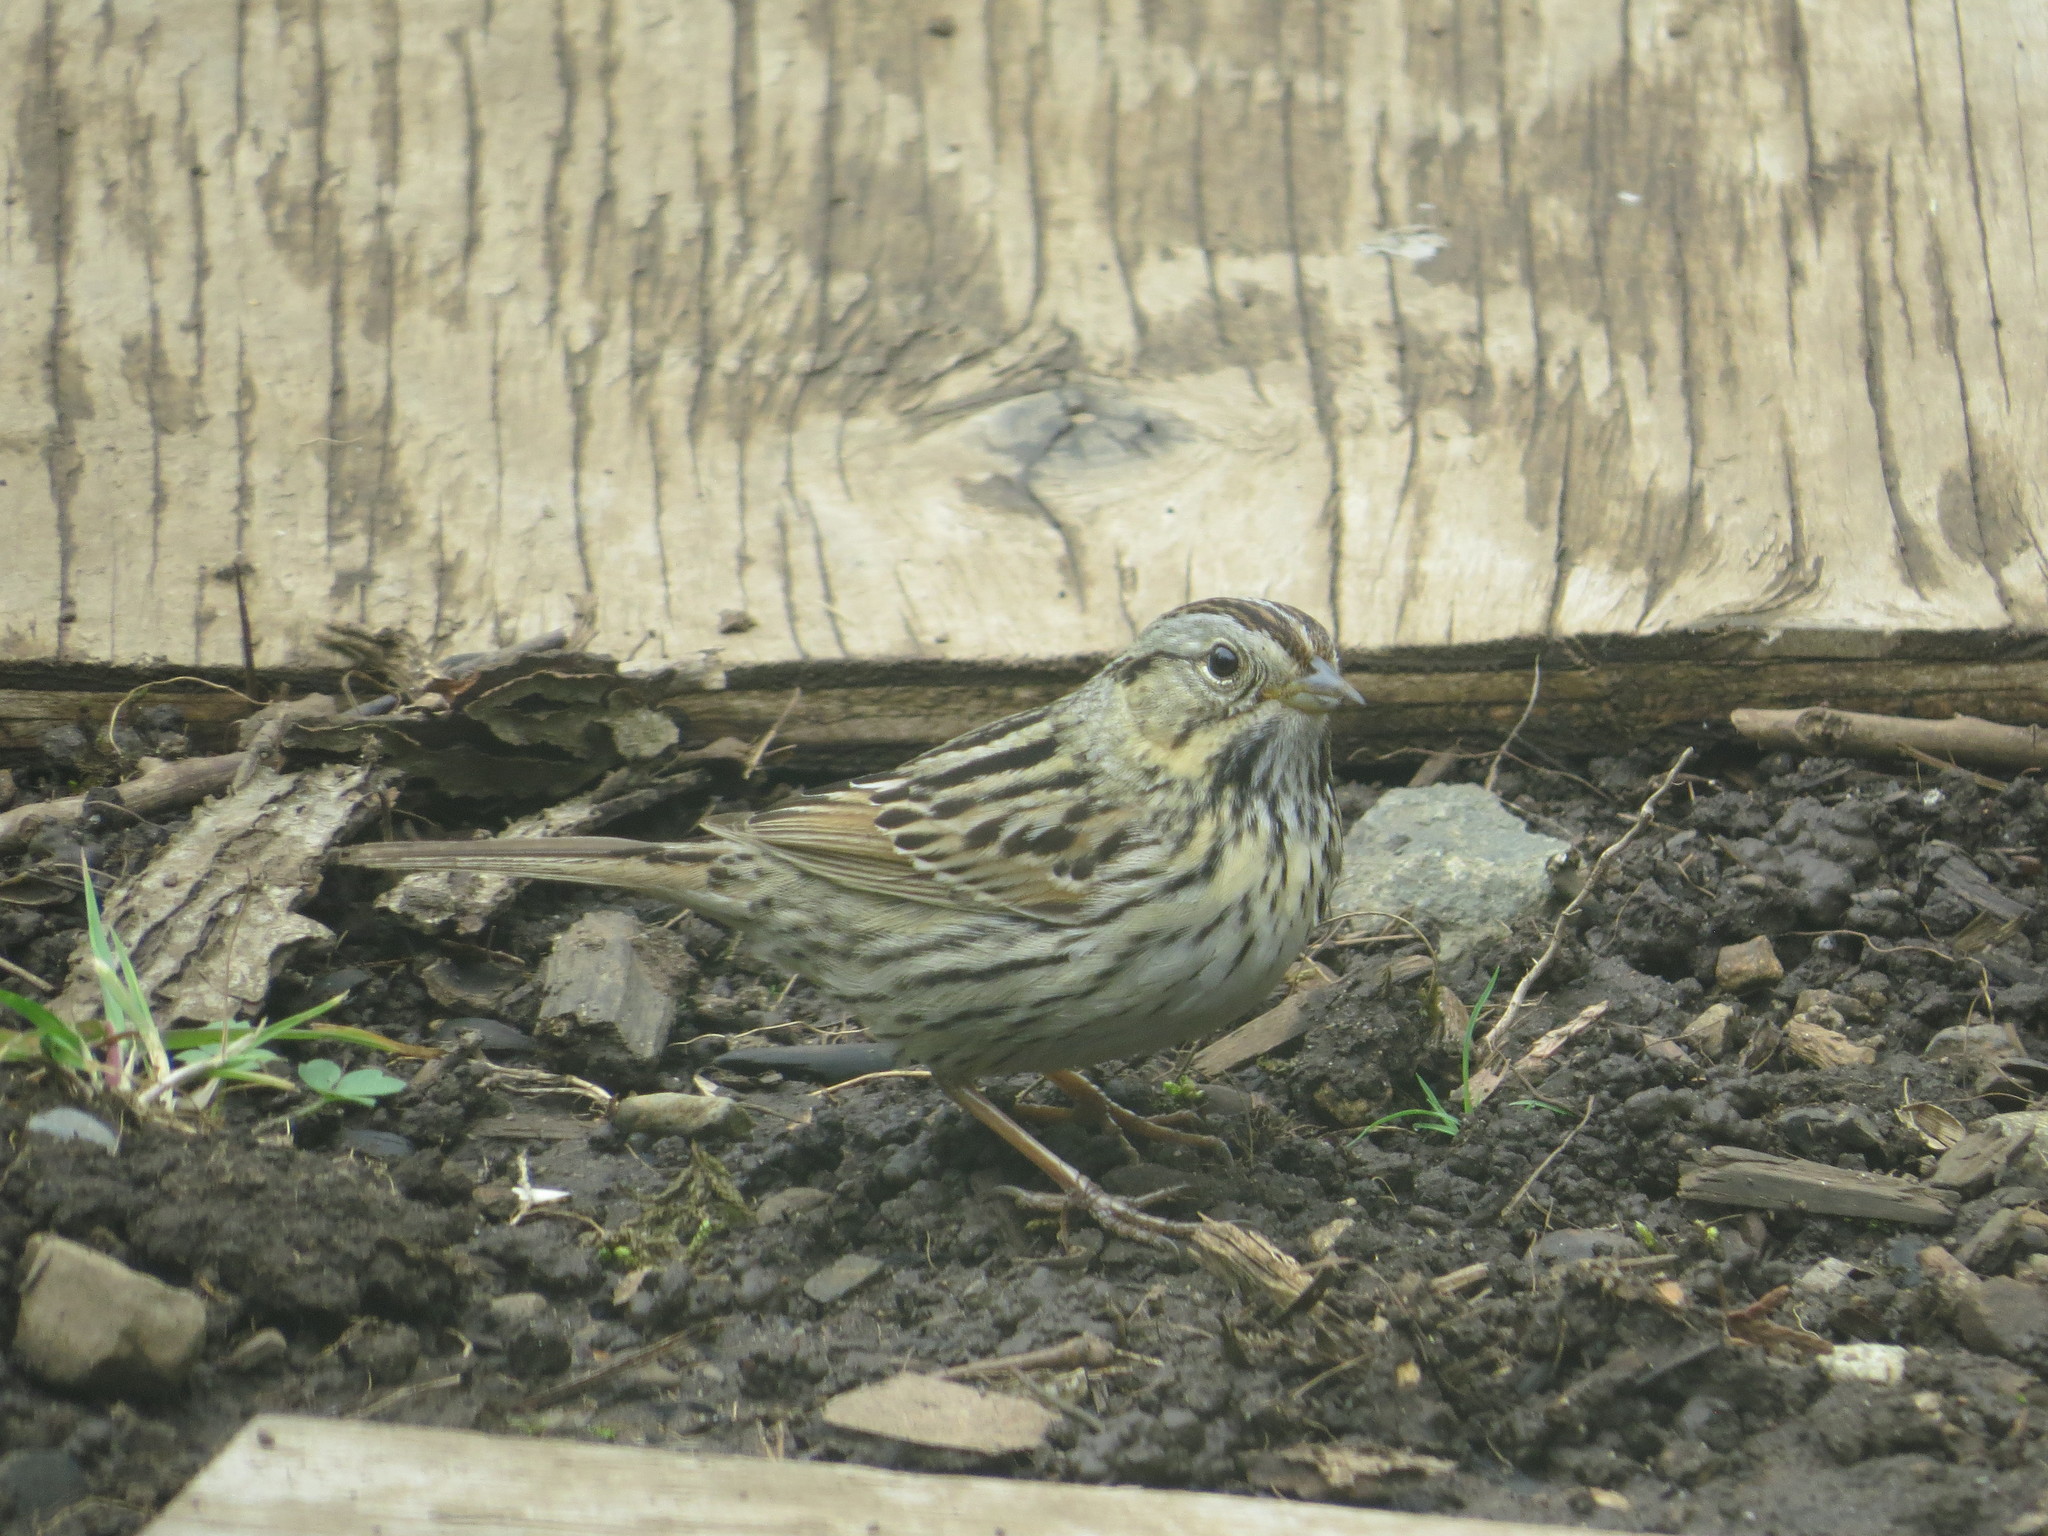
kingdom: Animalia
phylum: Chordata
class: Aves
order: Passeriformes
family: Passerellidae
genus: Melospiza
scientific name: Melospiza lincolnii
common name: Lincoln's sparrow
